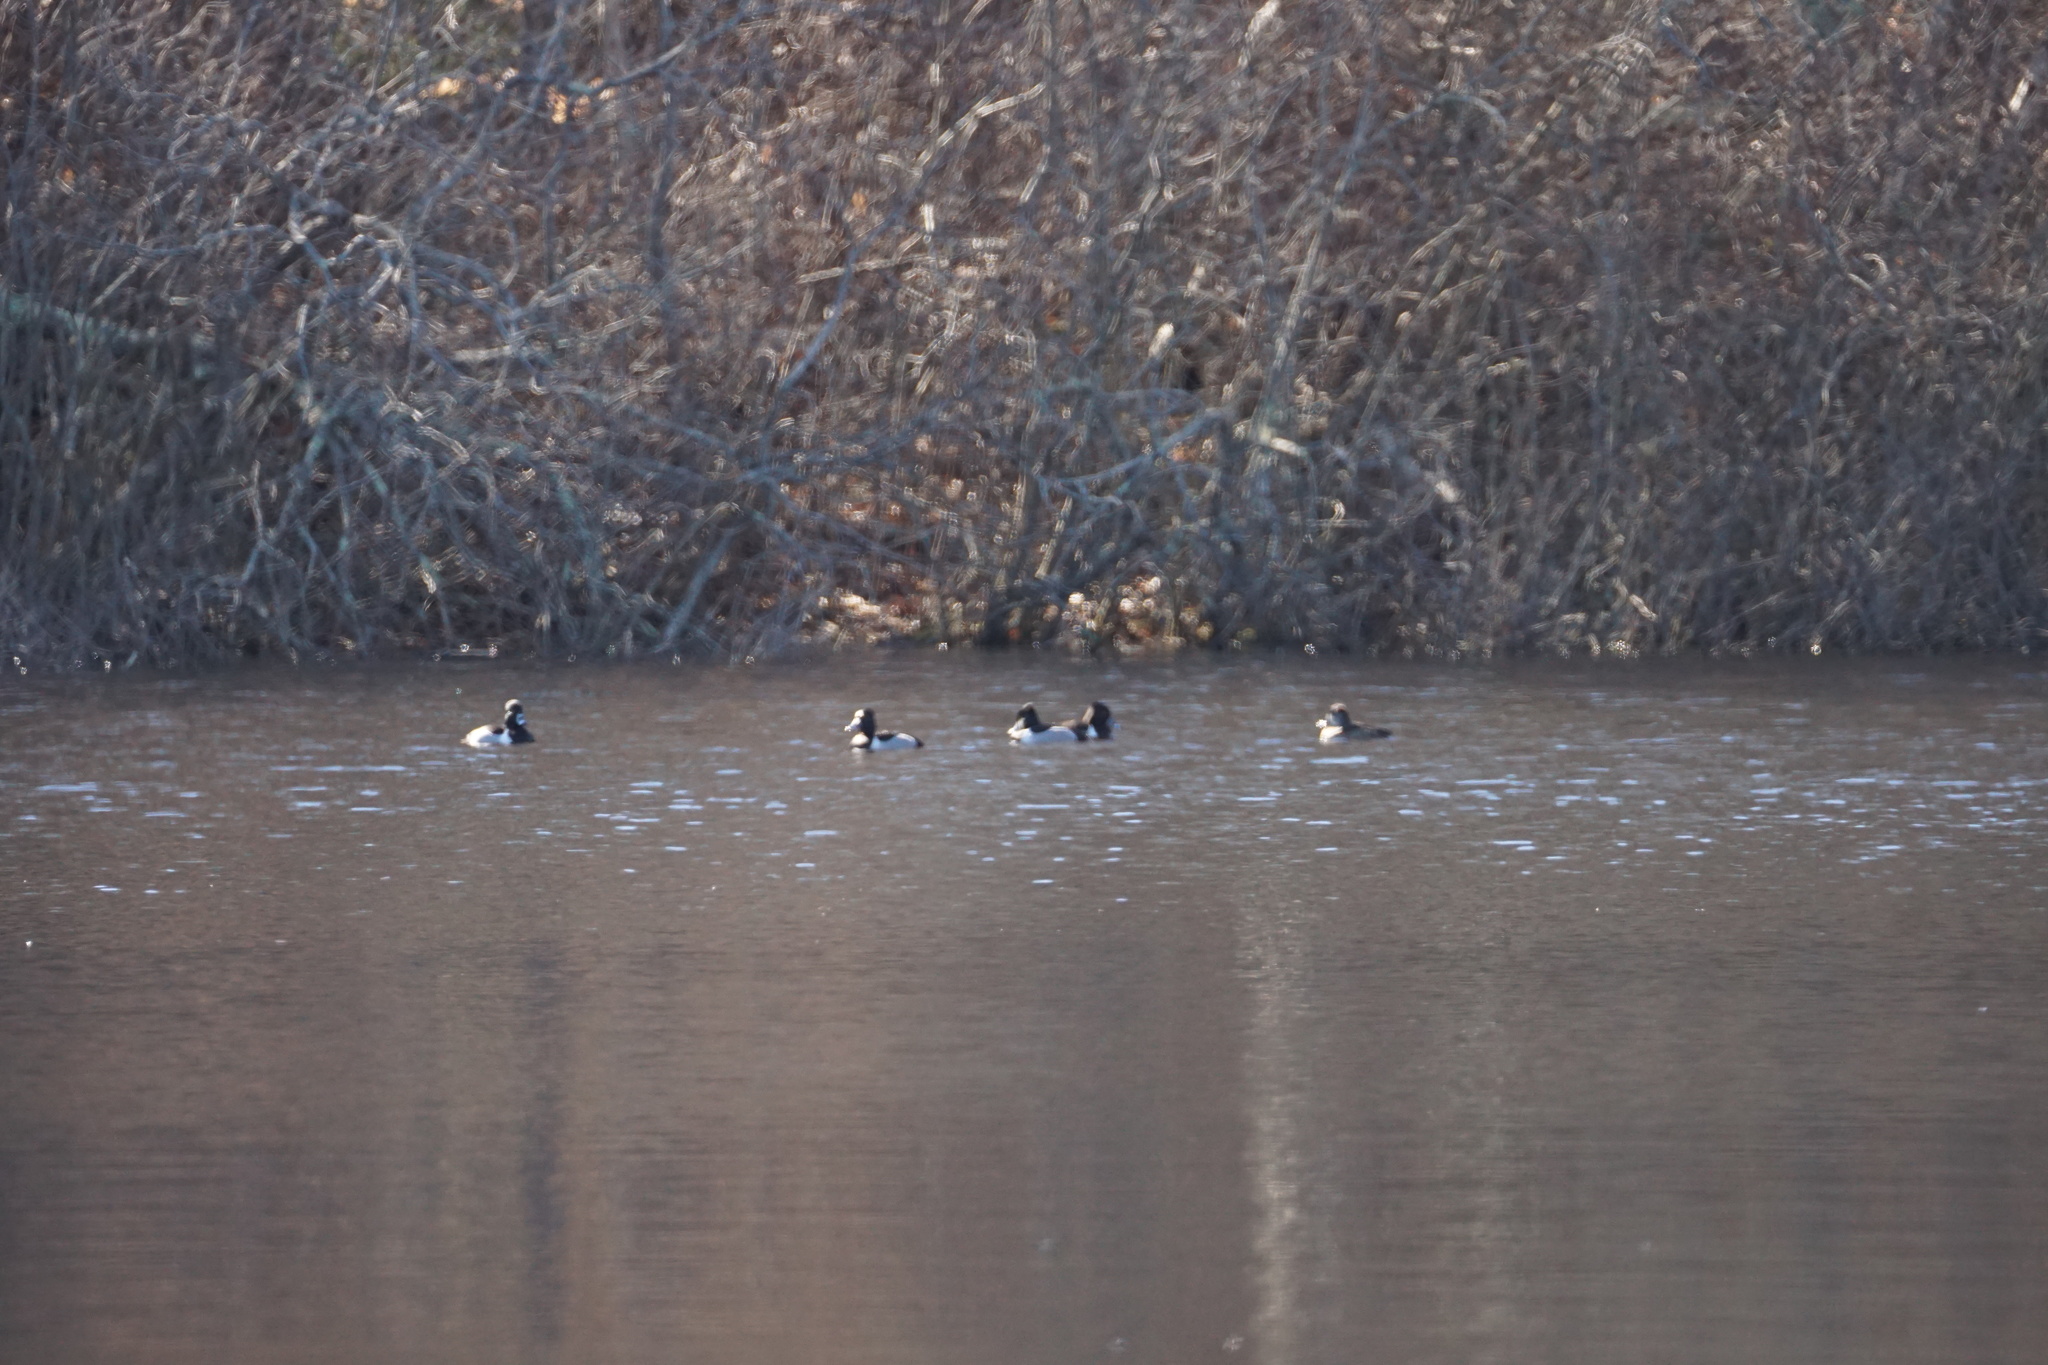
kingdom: Animalia
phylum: Chordata
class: Aves
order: Anseriformes
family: Anatidae
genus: Aythya
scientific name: Aythya collaris
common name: Ring-necked duck
